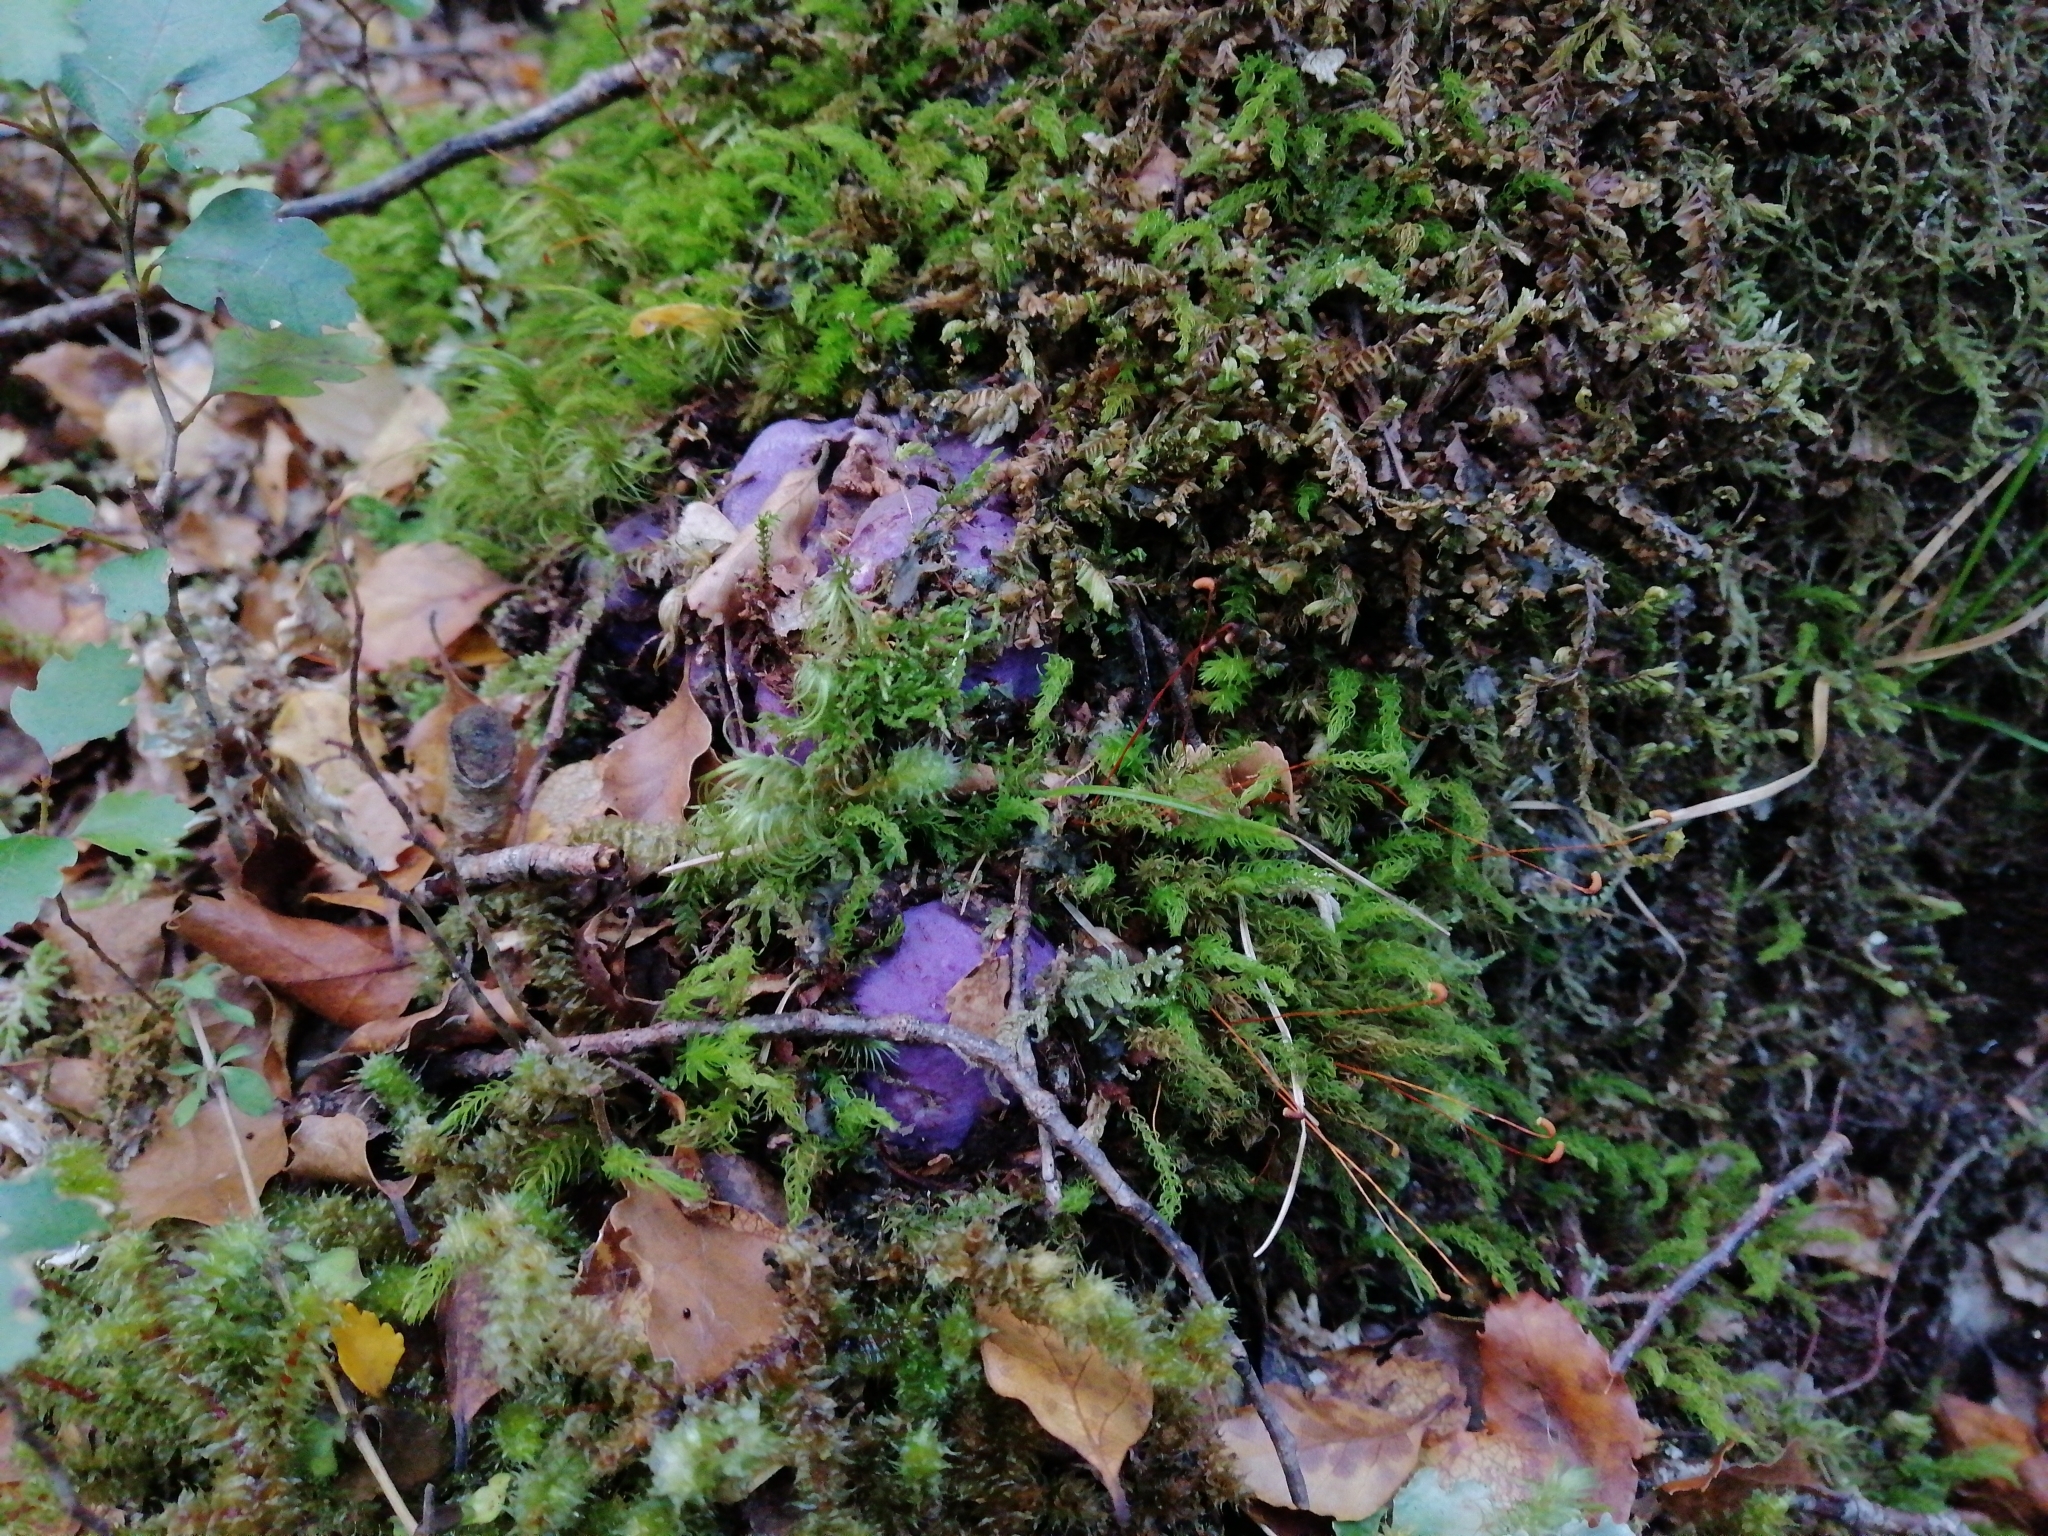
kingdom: Fungi
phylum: Basidiomycota
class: Agaricomycetes
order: Hysterangiales
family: Gallaceaceae
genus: Gallacea
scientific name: Gallacea scleroderma
